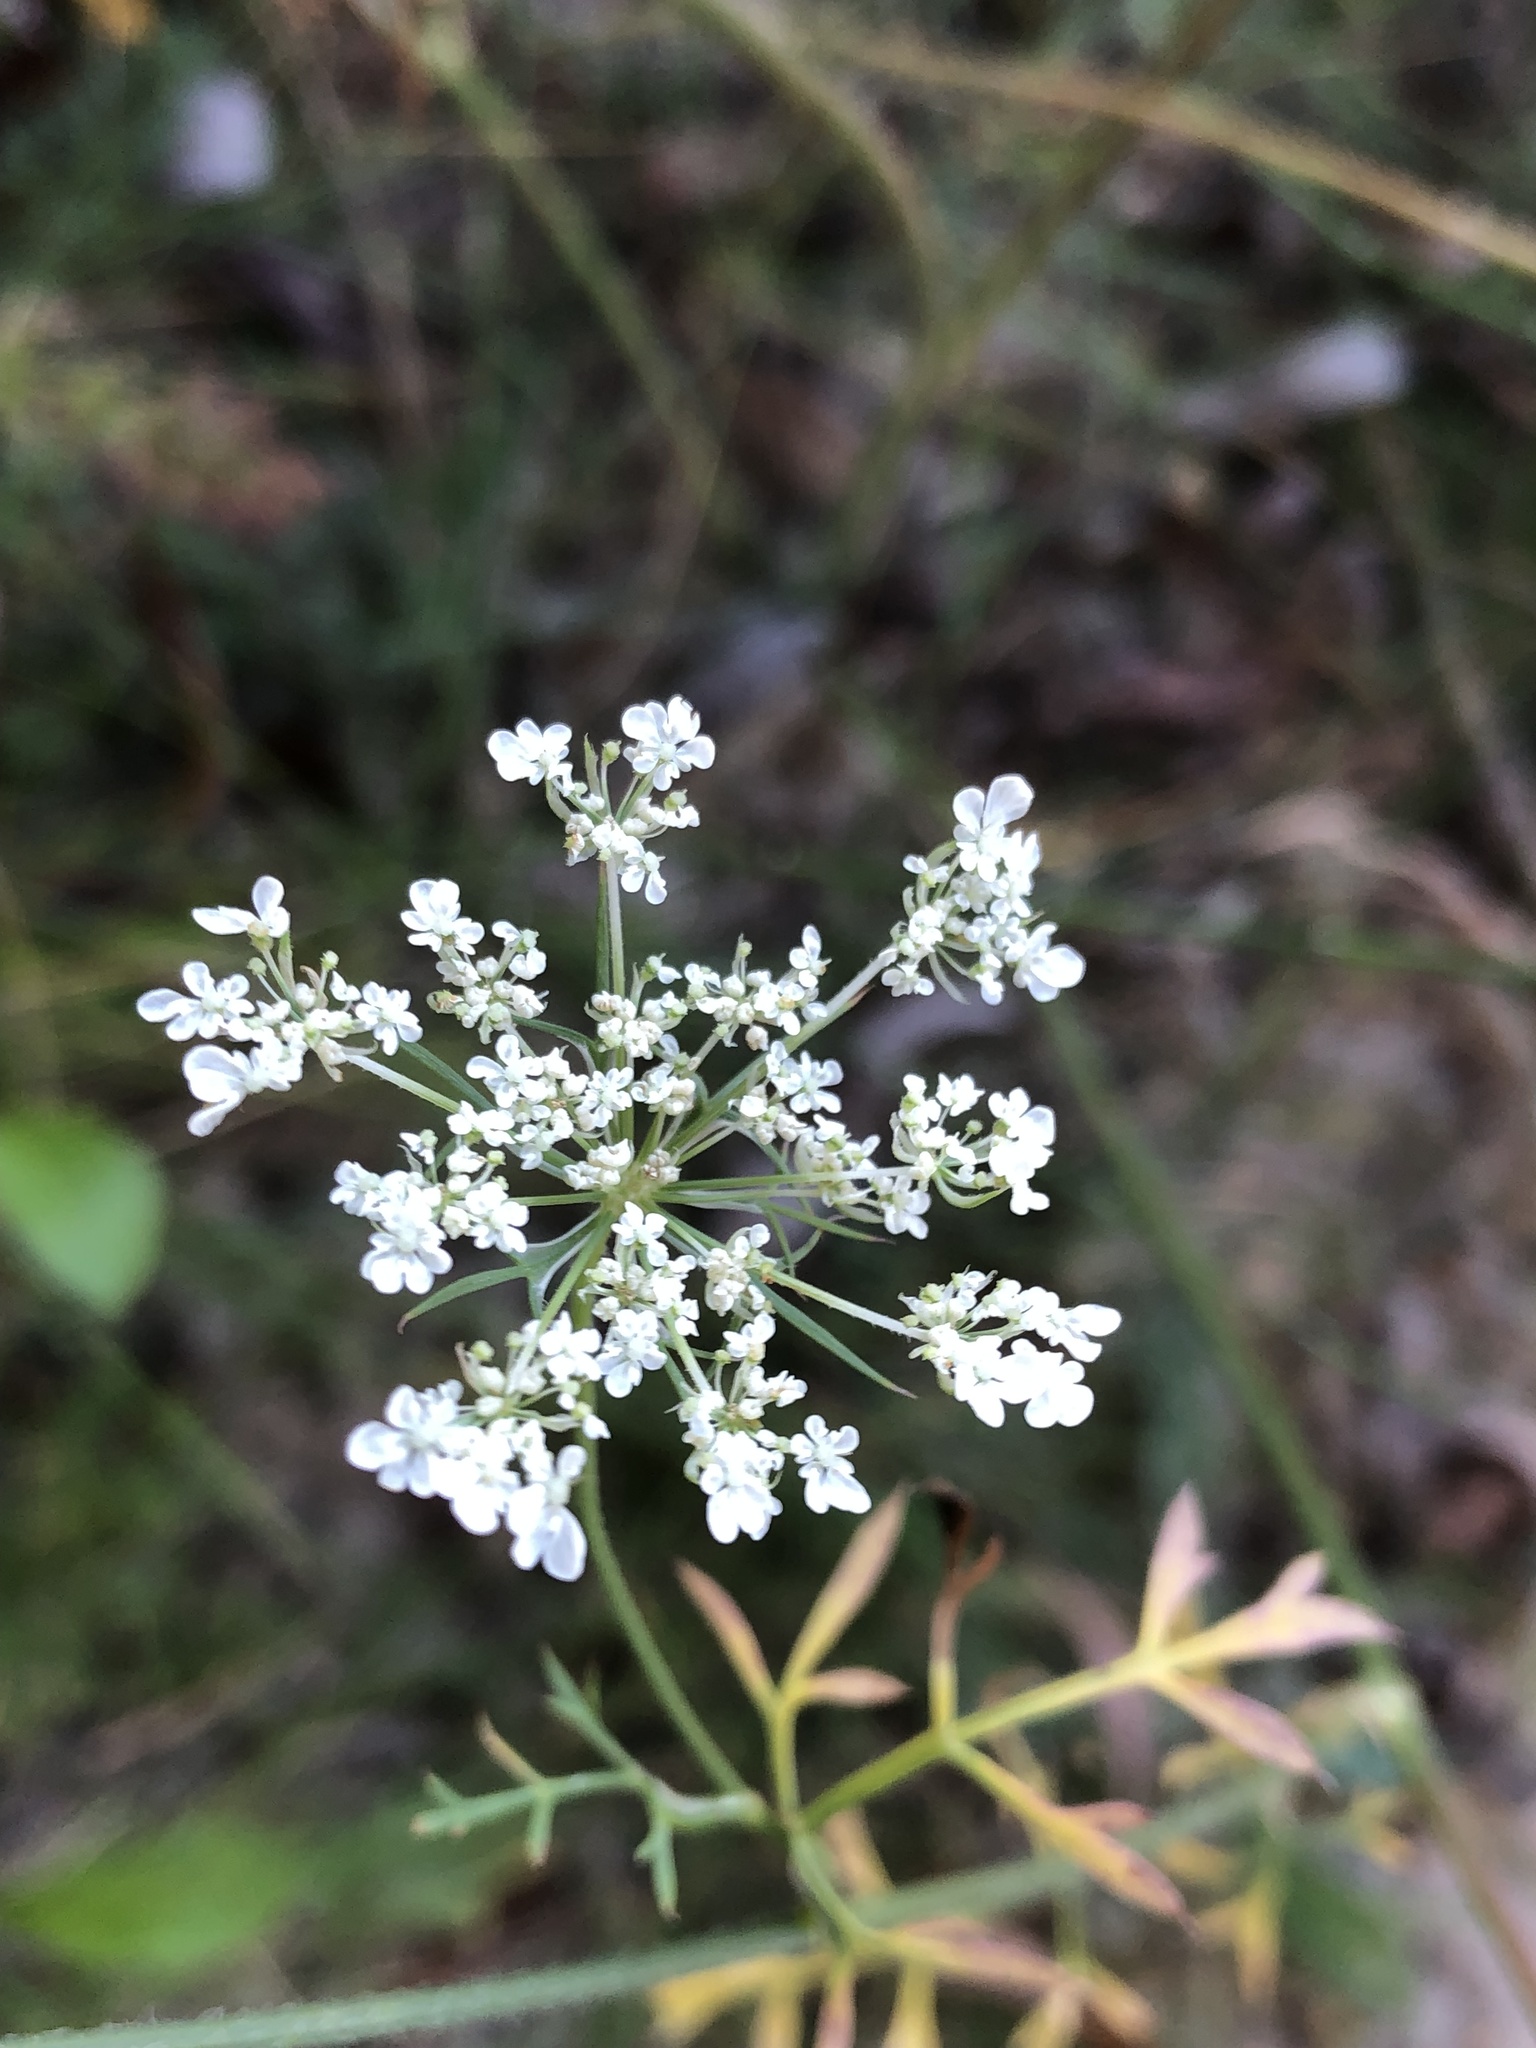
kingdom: Plantae
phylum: Tracheophyta
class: Magnoliopsida
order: Apiales
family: Apiaceae
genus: Daucus
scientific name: Daucus carota
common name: Wild carrot
